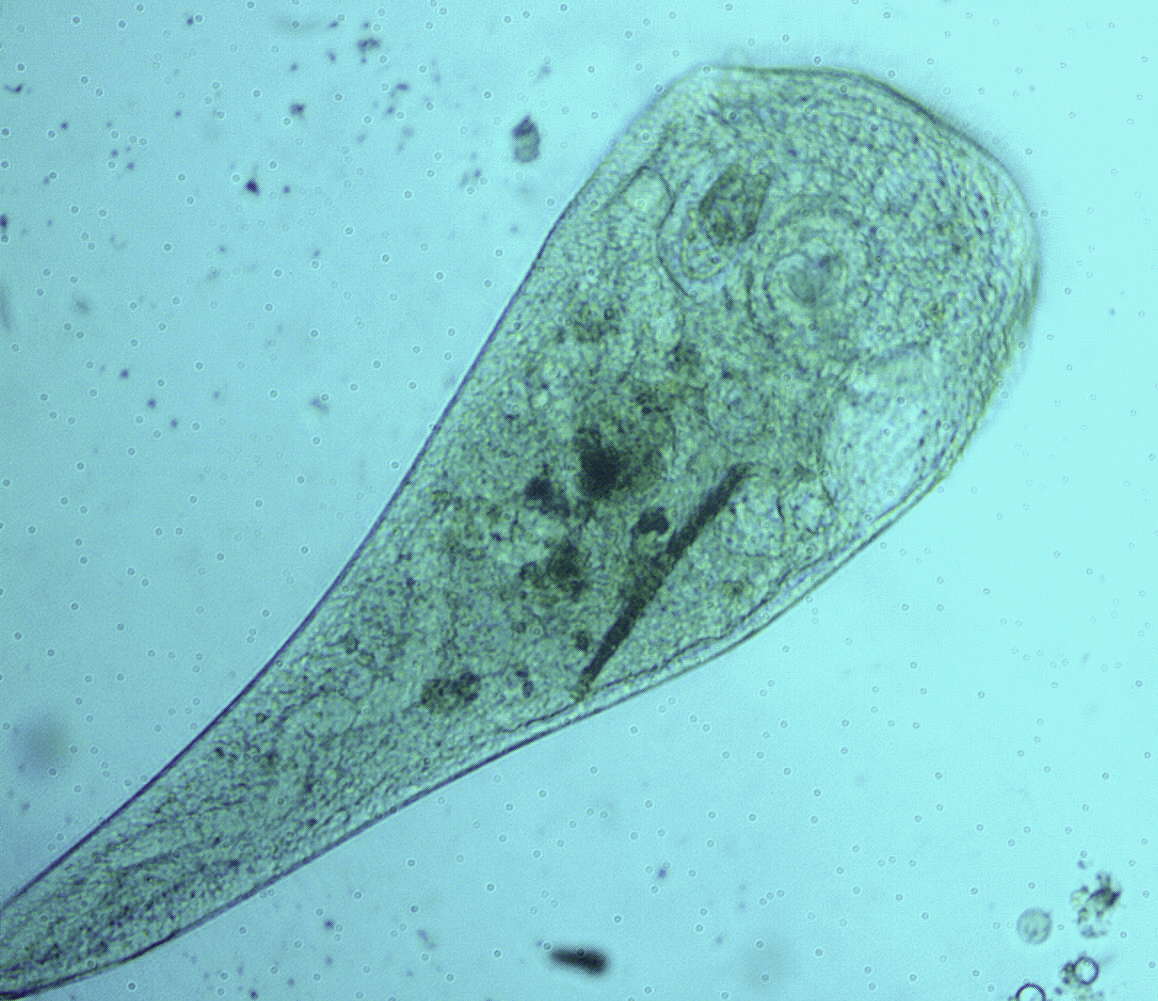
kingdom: Chromista
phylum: Ciliophora
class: Heterotrichea
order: Heterotrichida
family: Stentoridae
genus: Stentor
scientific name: Stentor roeselii
